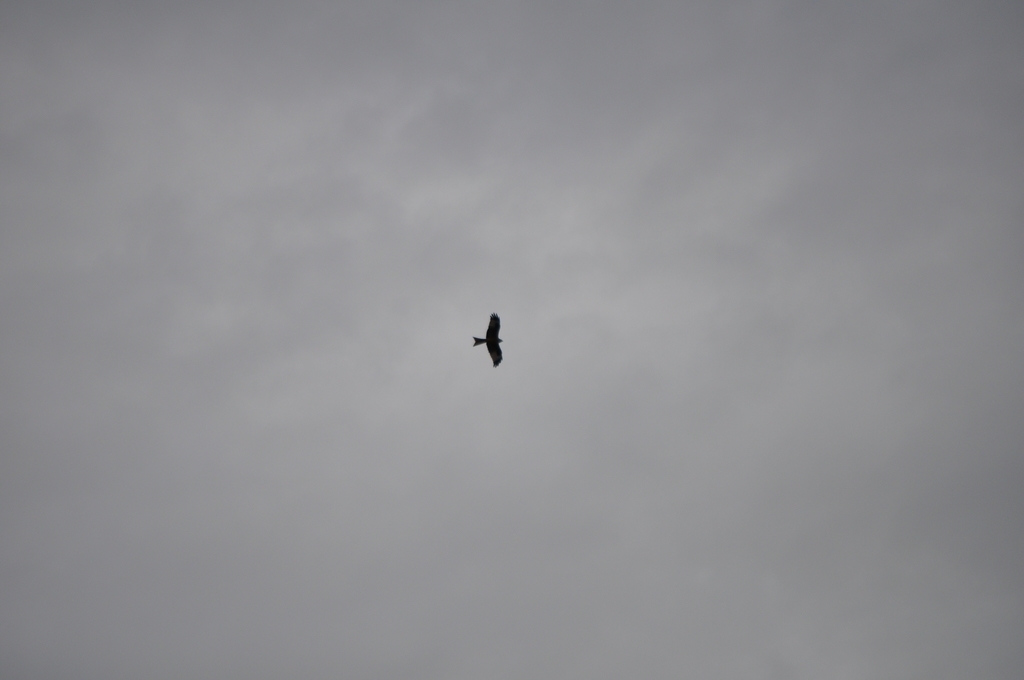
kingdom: Animalia
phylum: Chordata
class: Aves
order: Accipitriformes
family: Accipitridae
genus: Milvus
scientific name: Milvus milvus
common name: Red kite
